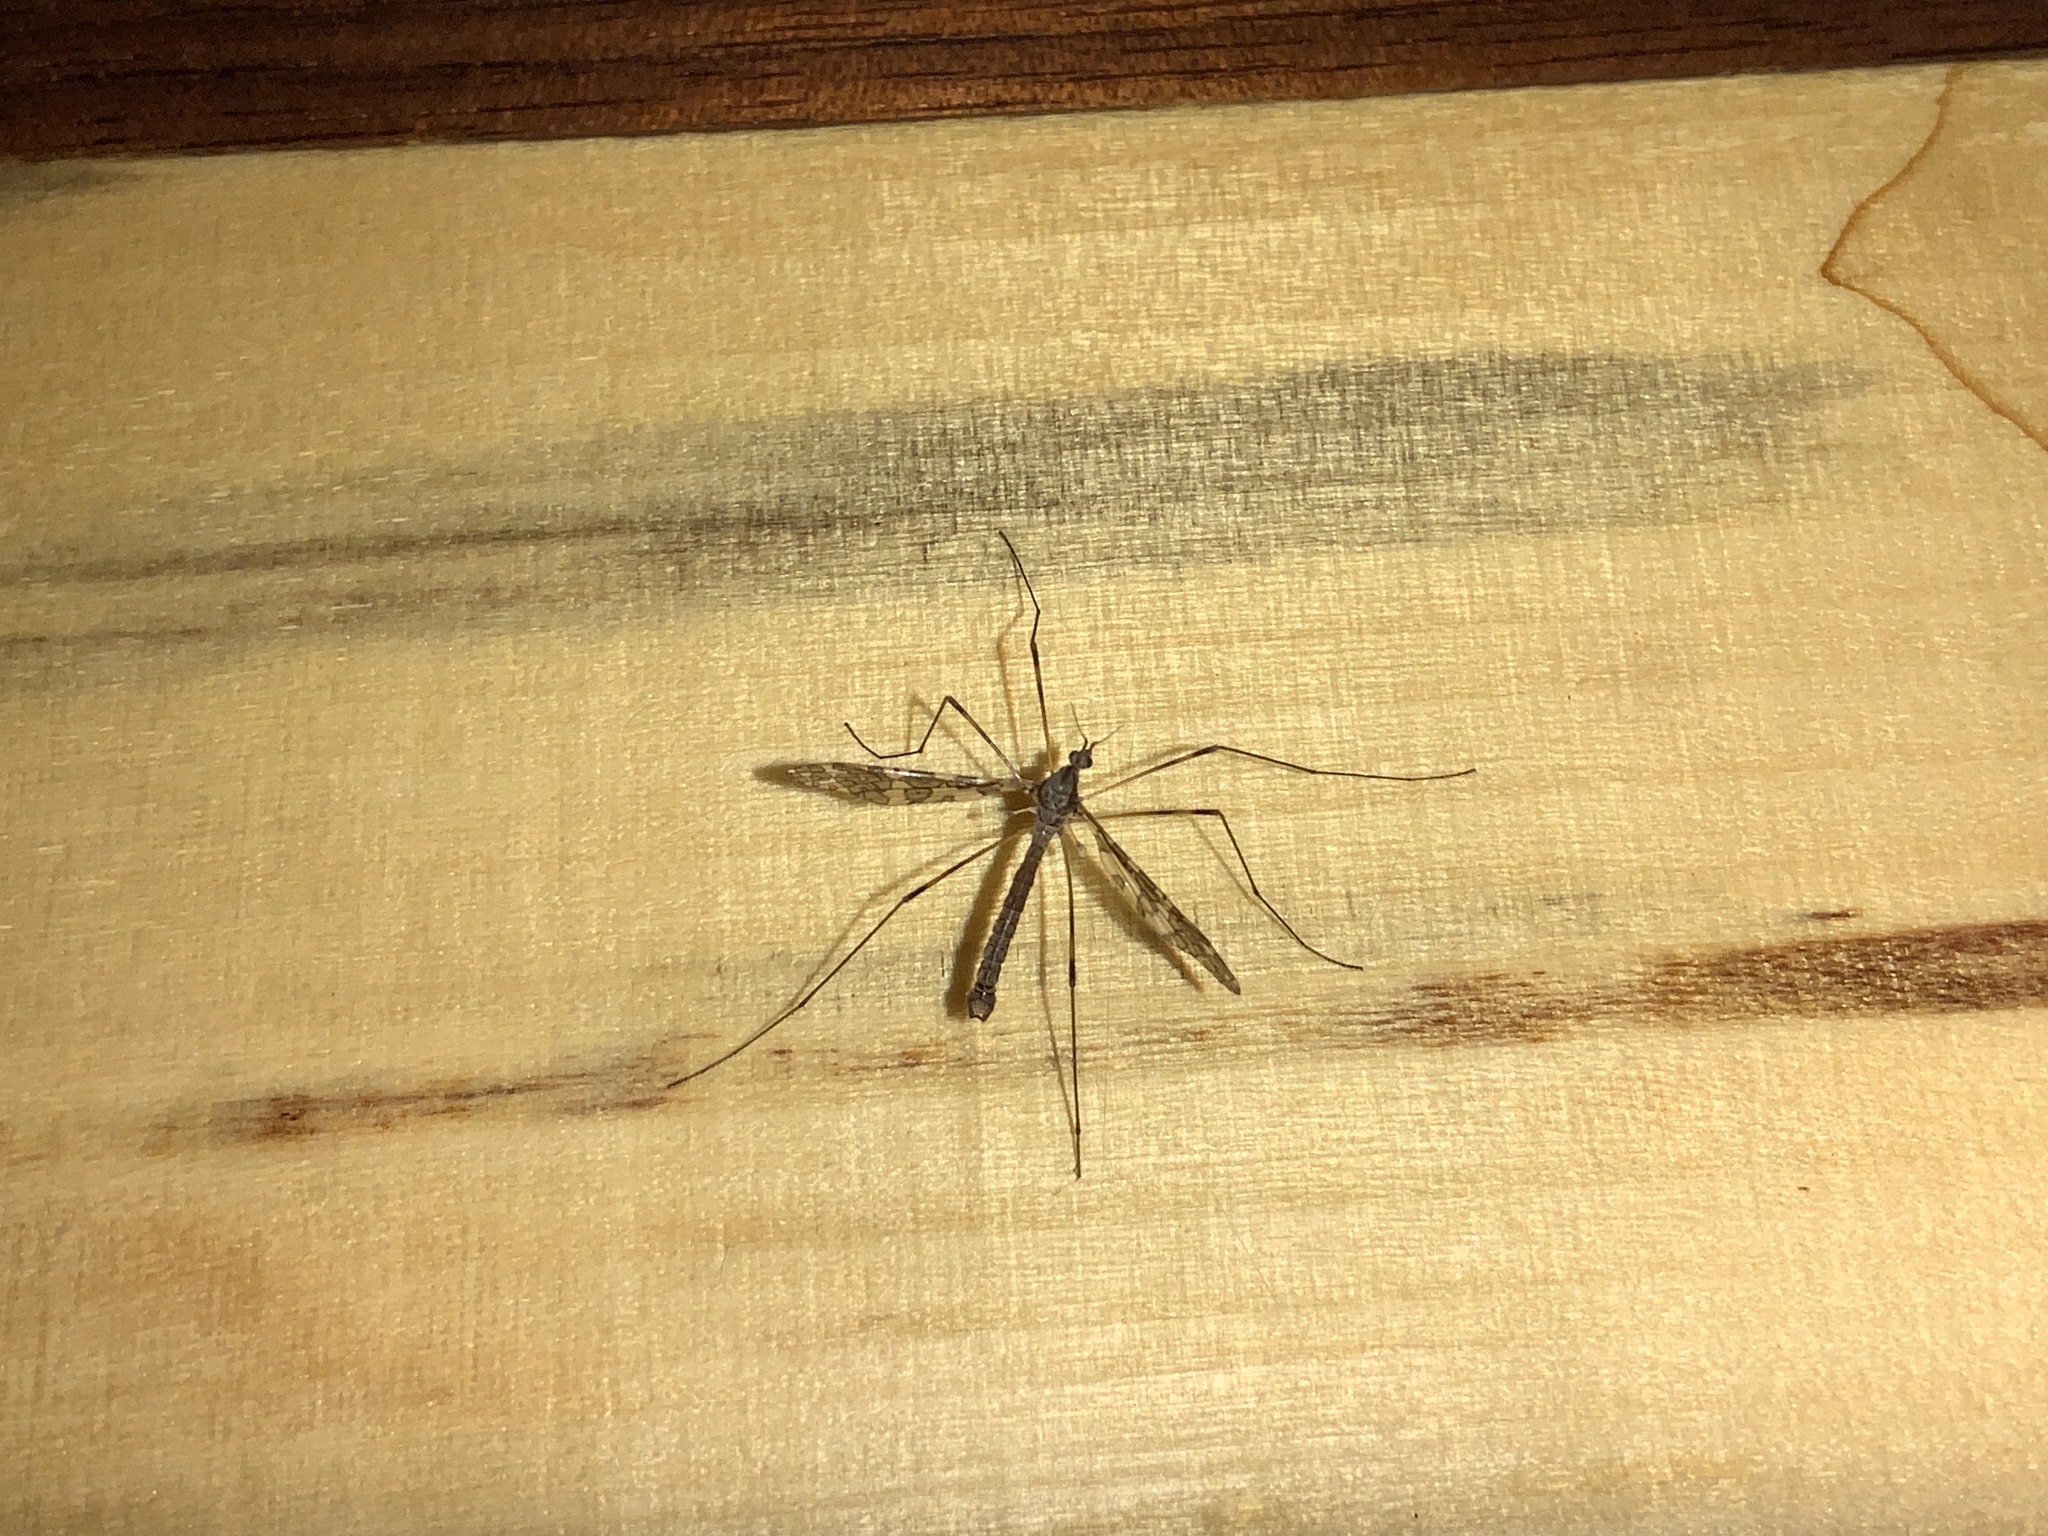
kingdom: Animalia
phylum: Arthropoda
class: Insecta
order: Diptera
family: Limoniidae
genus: Epiphragma
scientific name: Epiphragma fasciapenne
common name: Band-winged crane fly
